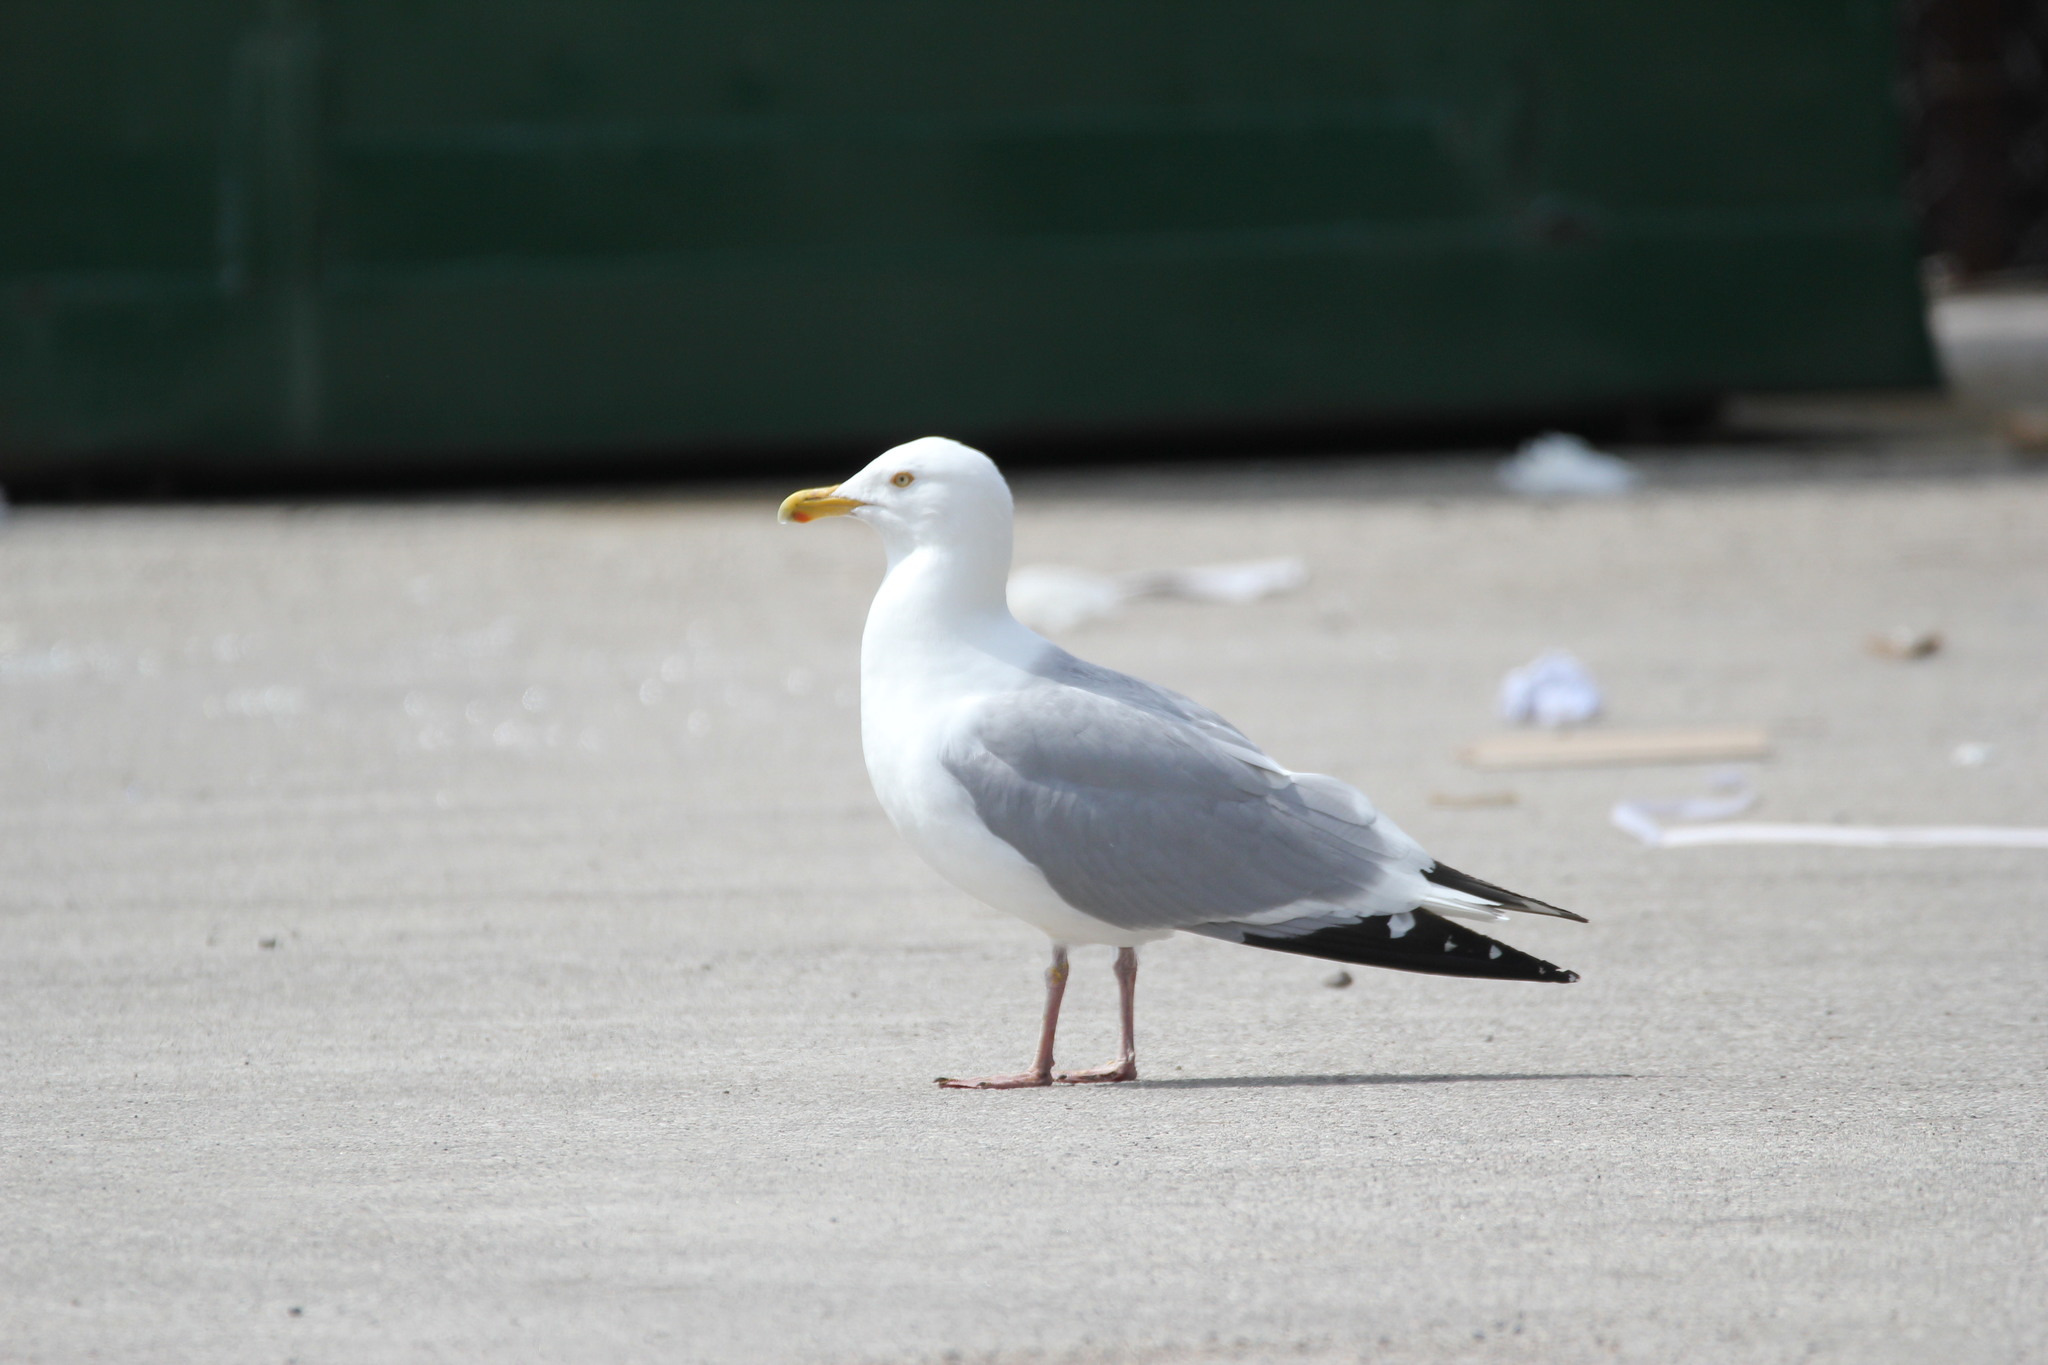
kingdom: Animalia
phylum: Chordata
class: Aves
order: Charadriiformes
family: Laridae
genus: Larus
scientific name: Larus argentatus
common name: Herring gull
